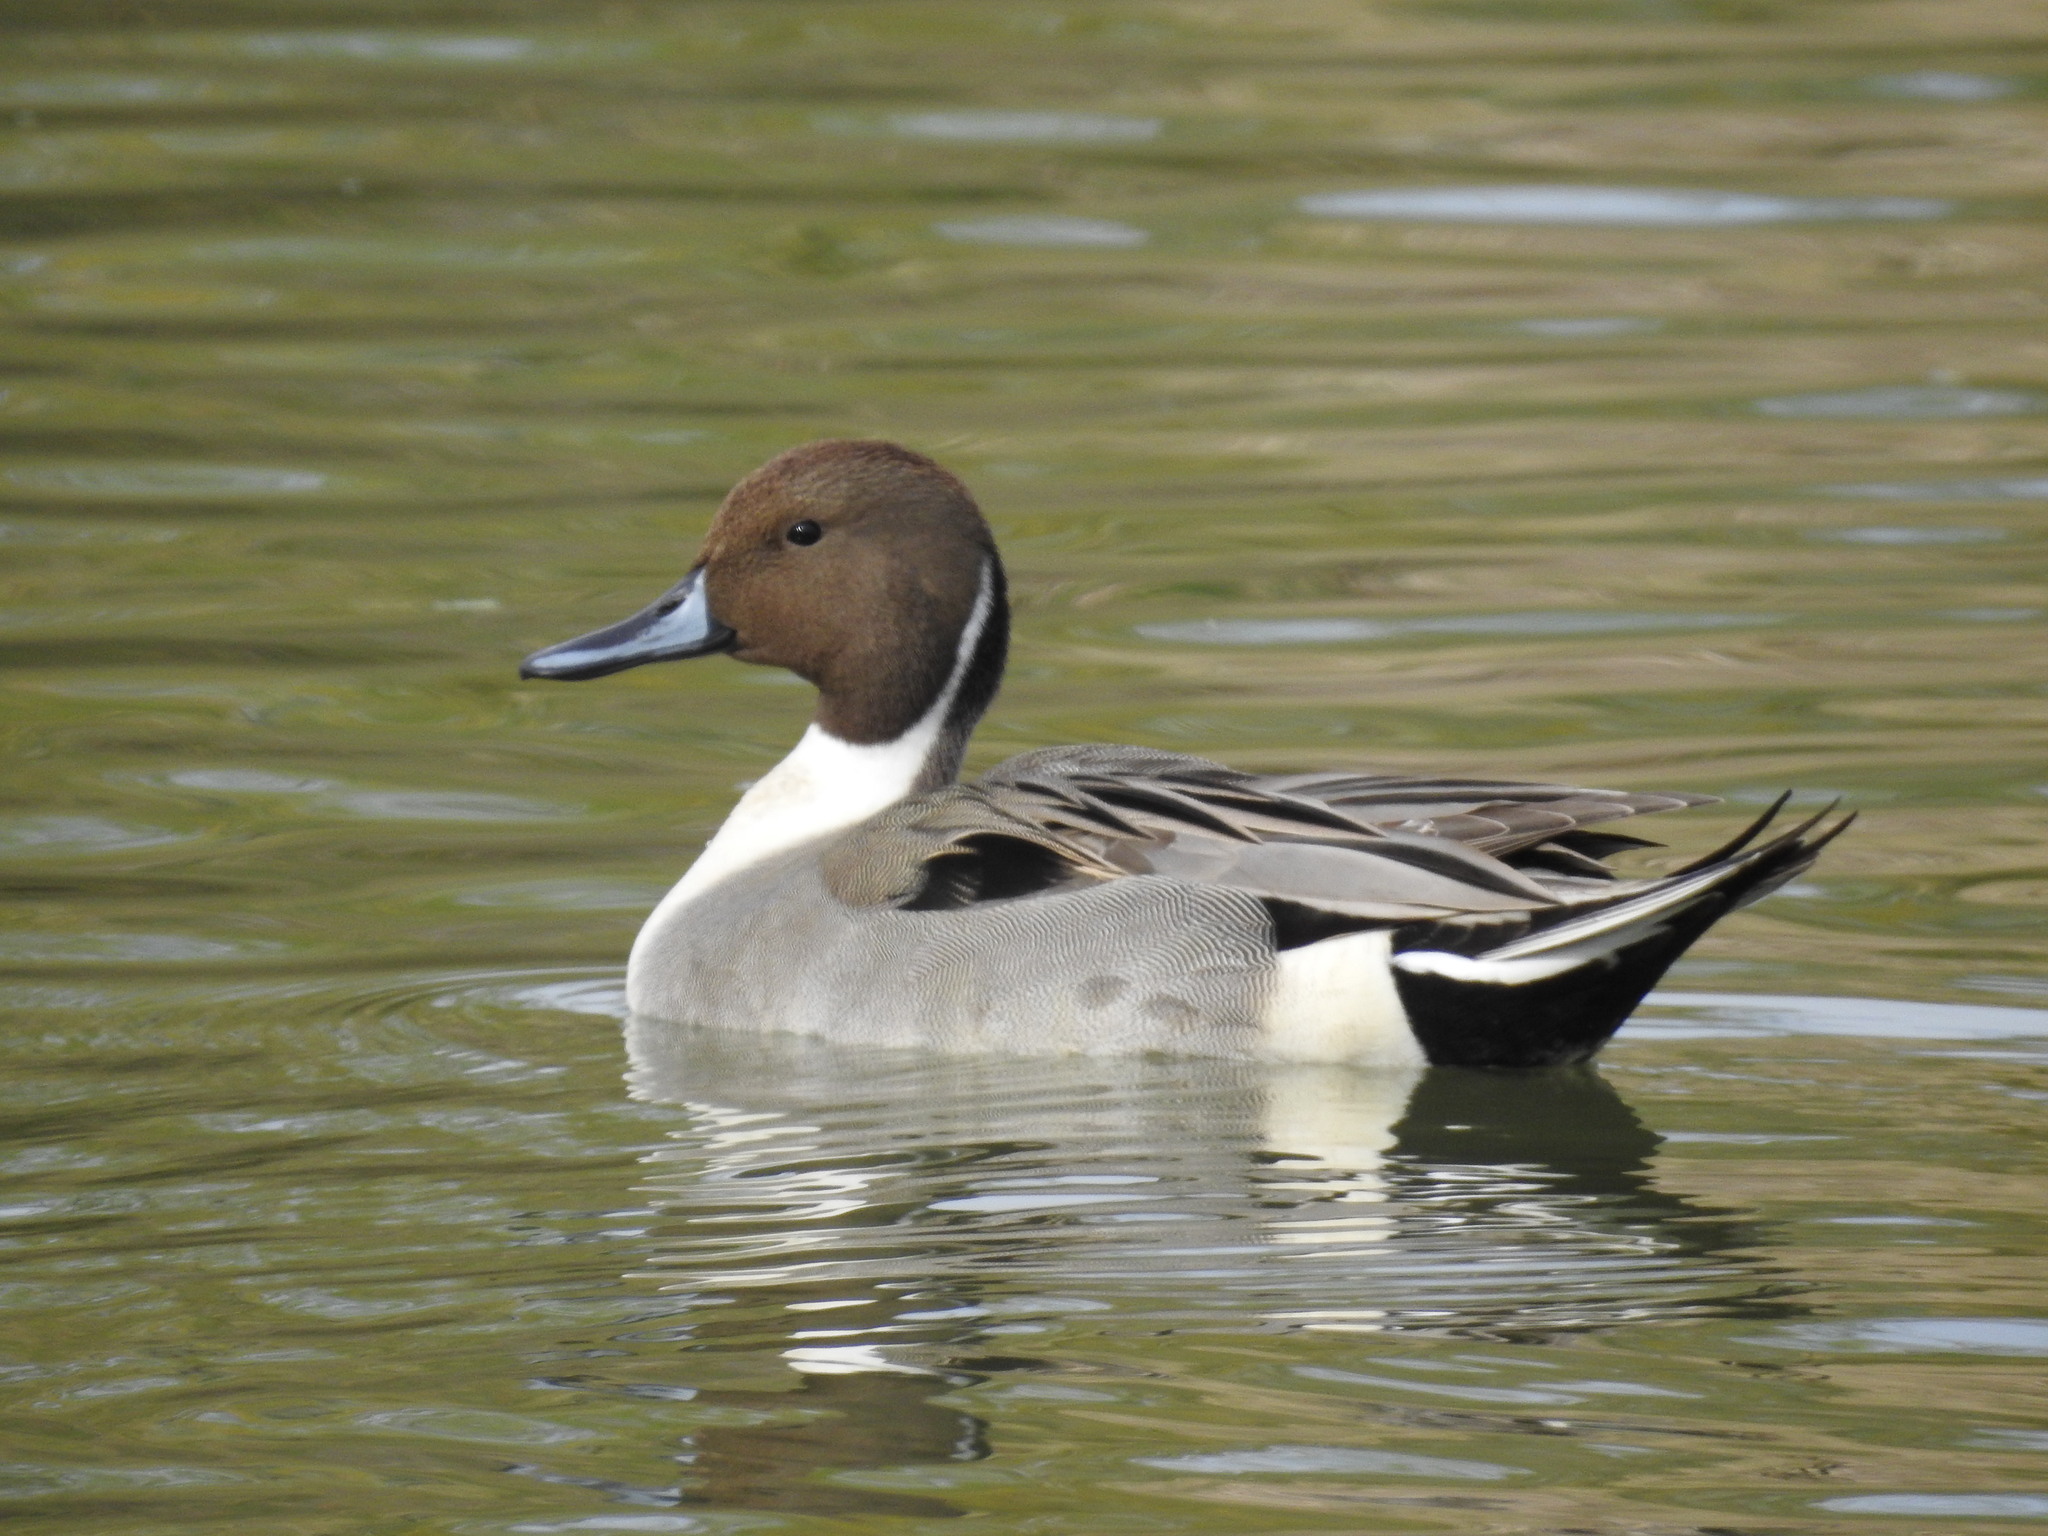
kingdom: Animalia
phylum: Chordata
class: Aves
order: Anseriformes
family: Anatidae
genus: Anas
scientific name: Anas acuta
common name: Northern pintail
